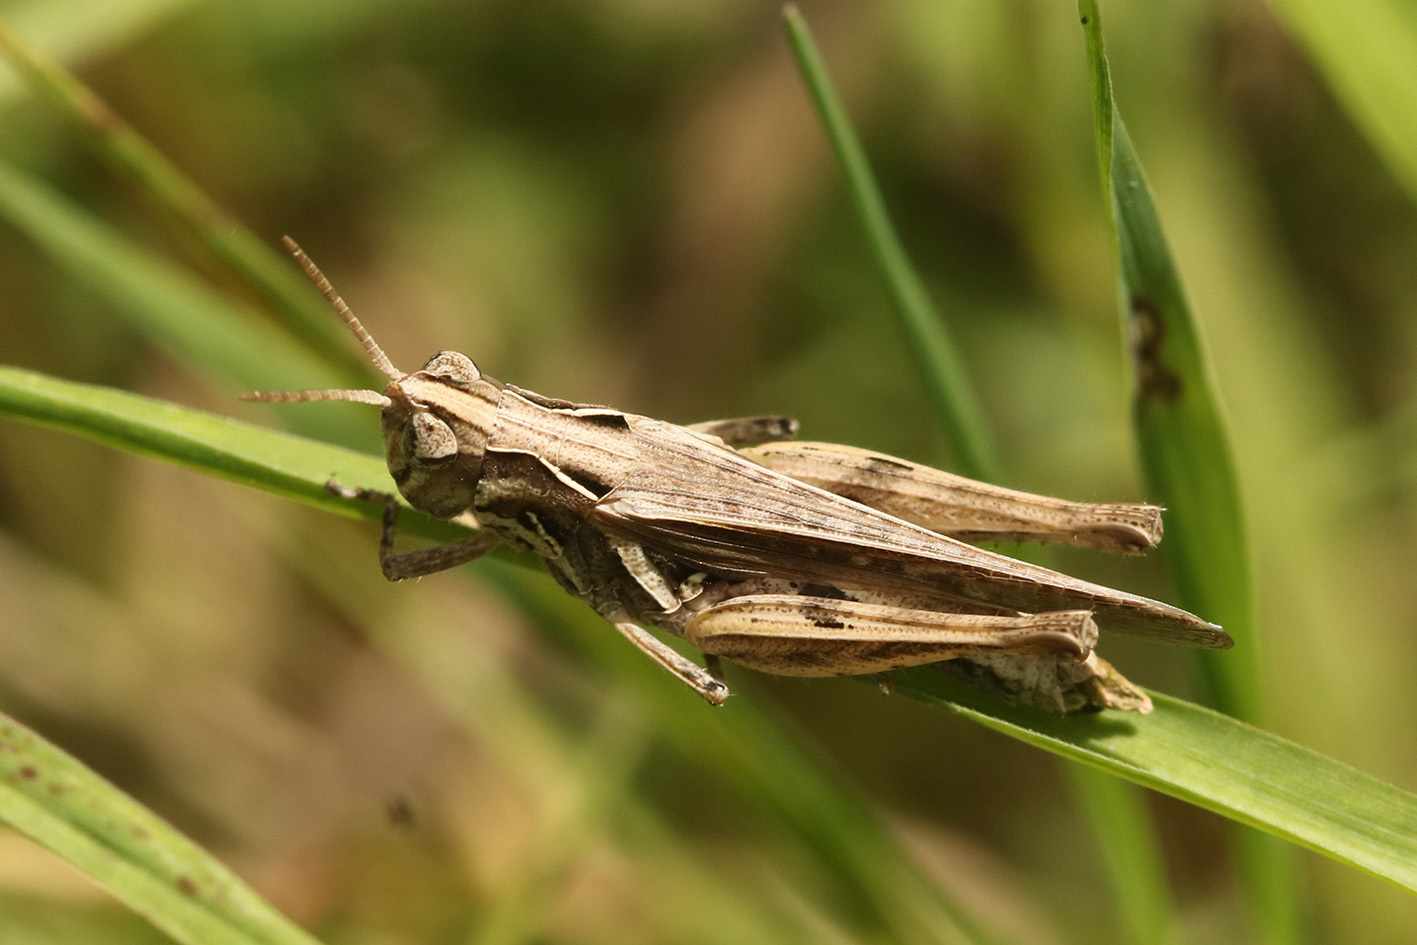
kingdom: Animalia
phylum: Arthropoda
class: Insecta
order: Orthoptera
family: Acrididae
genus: Orphulella
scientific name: Orphulella punctata
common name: Slant-faced grasshopper
